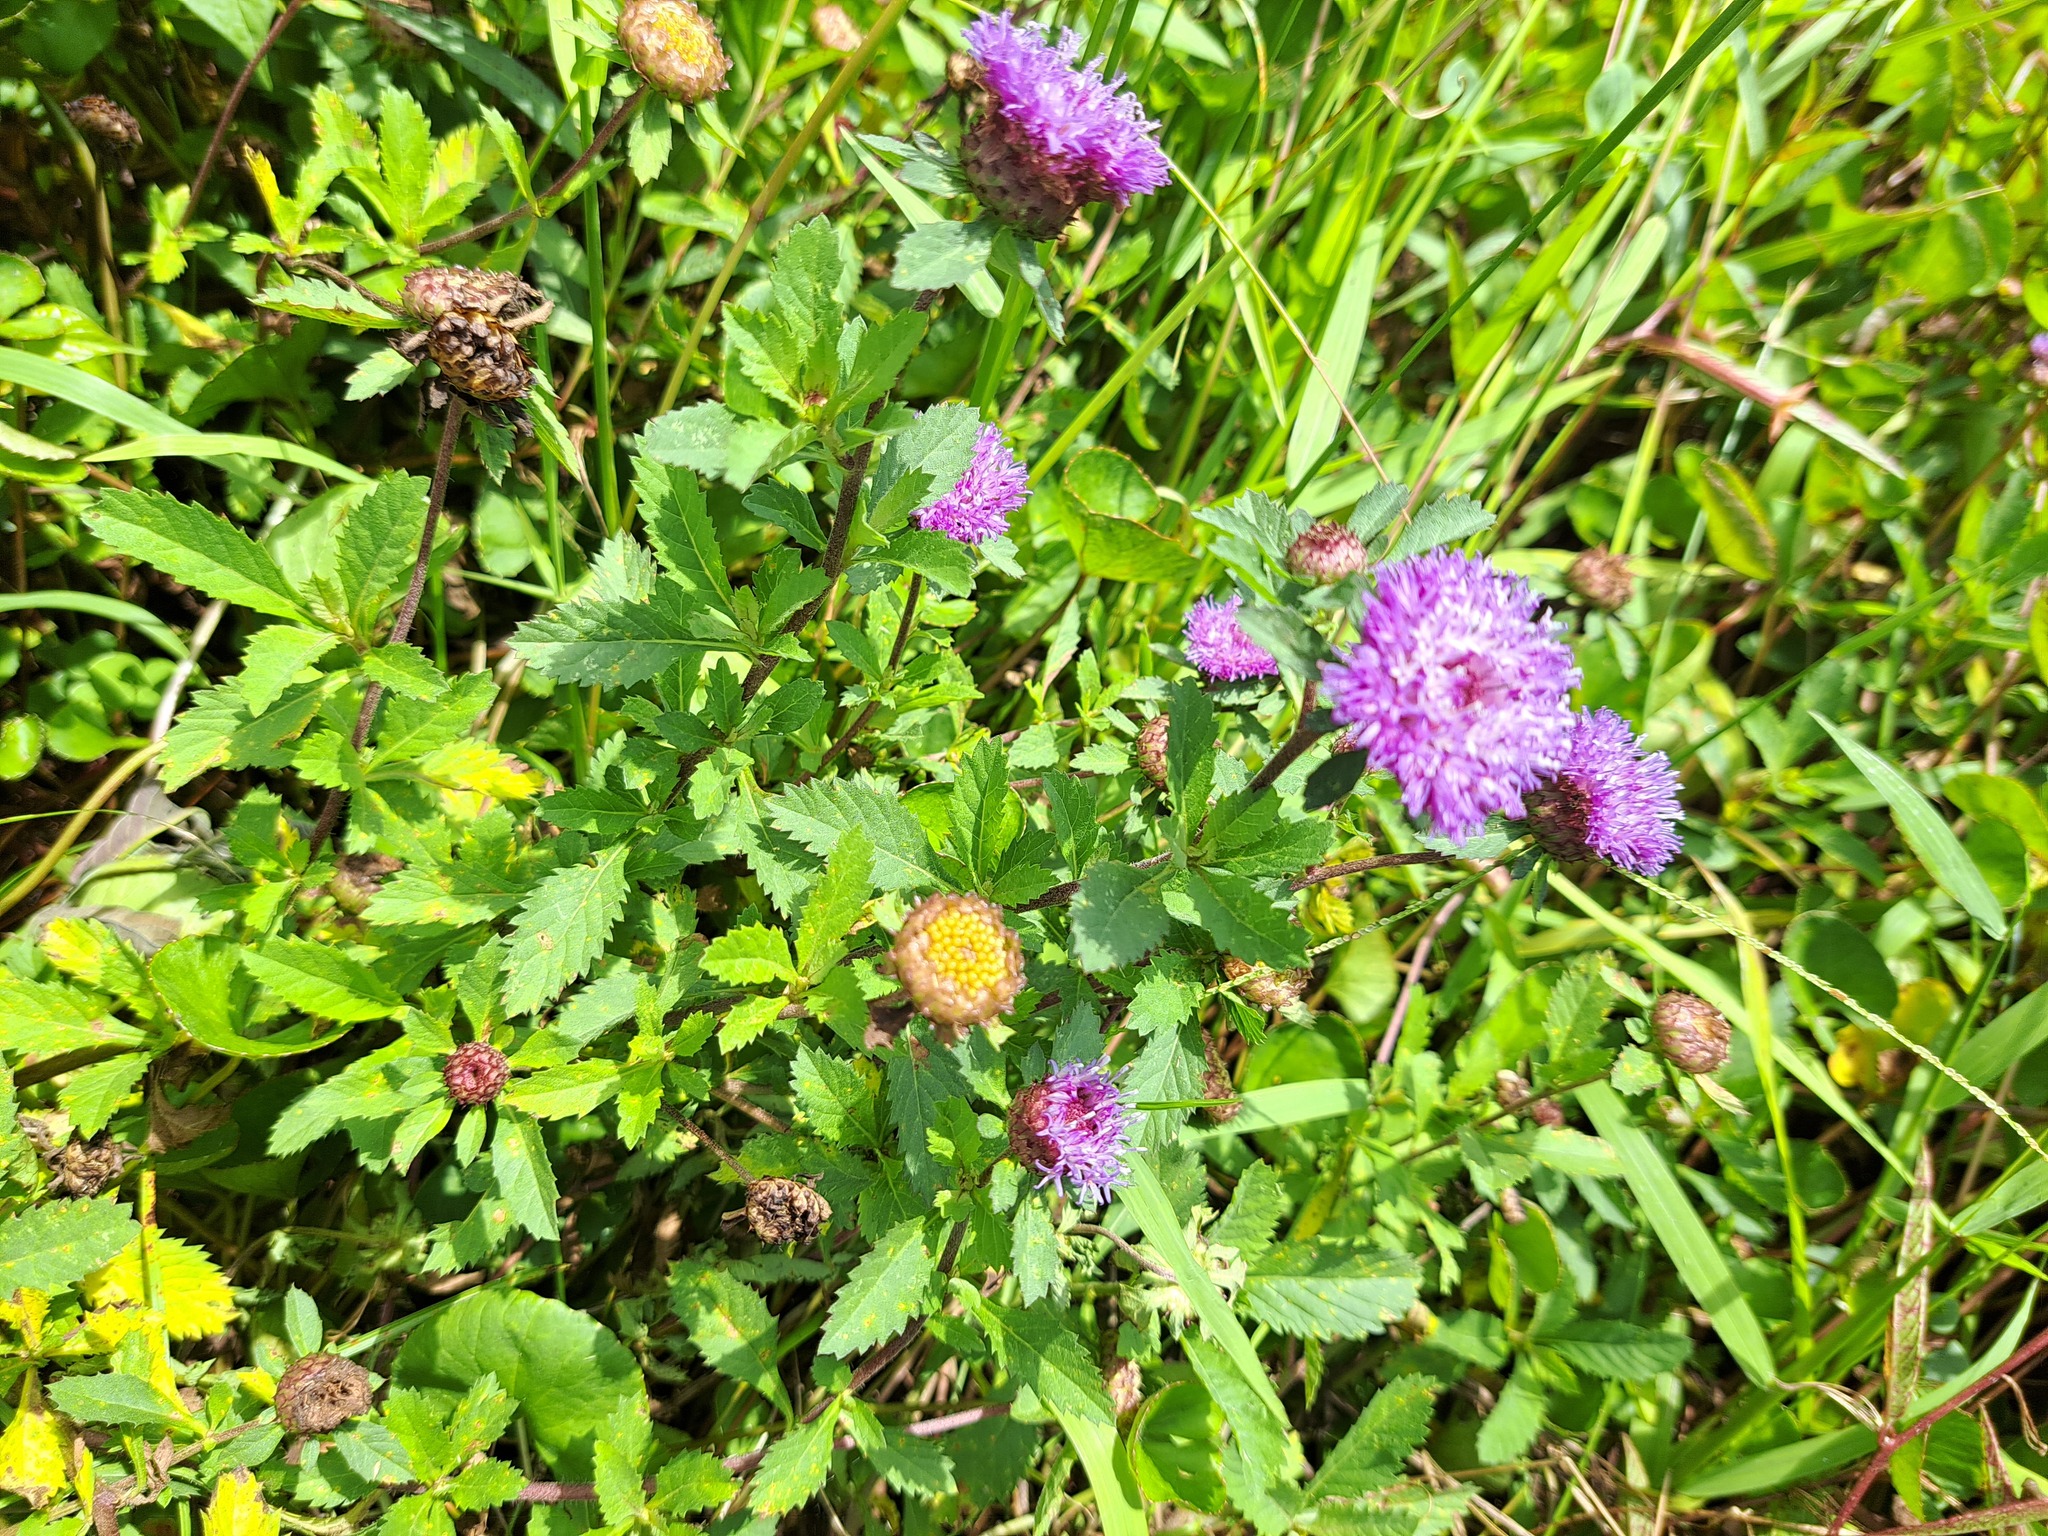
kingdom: Plantae
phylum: Tracheophyta
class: Magnoliopsida
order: Asterales
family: Asteraceae
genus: Centratherum
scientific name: Centratherum punctatum
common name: Larkdaisy
